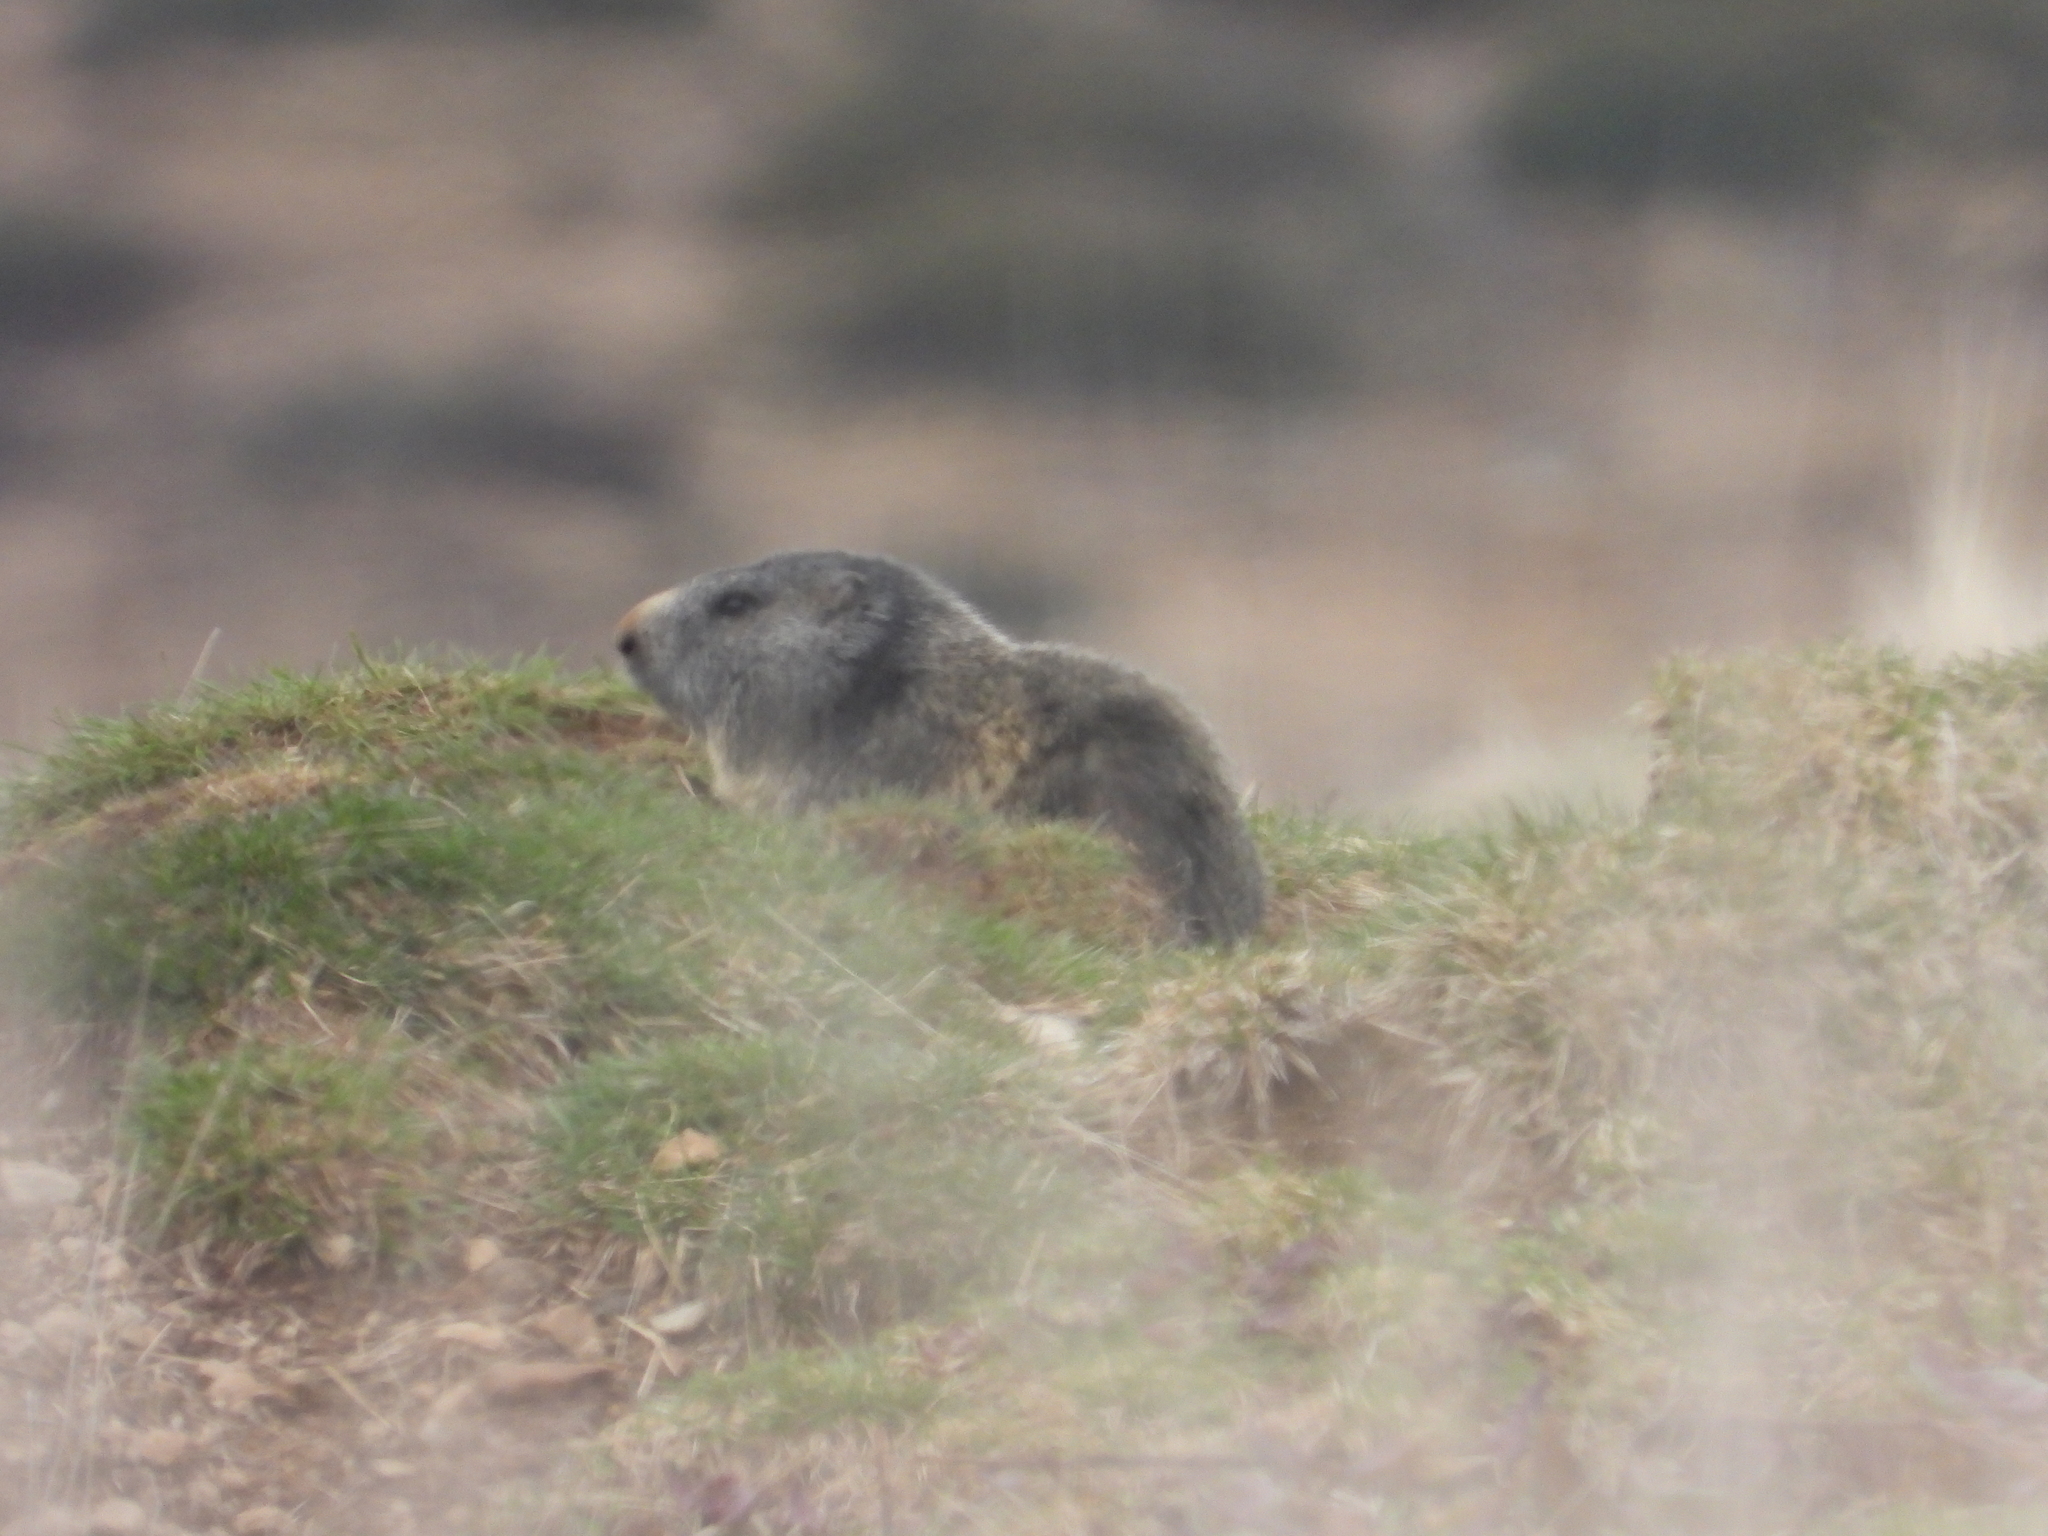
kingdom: Animalia
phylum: Chordata
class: Mammalia
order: Rodentia
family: Sciuridae
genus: Marmota
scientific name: Marmota marmota
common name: Alpine marmot
